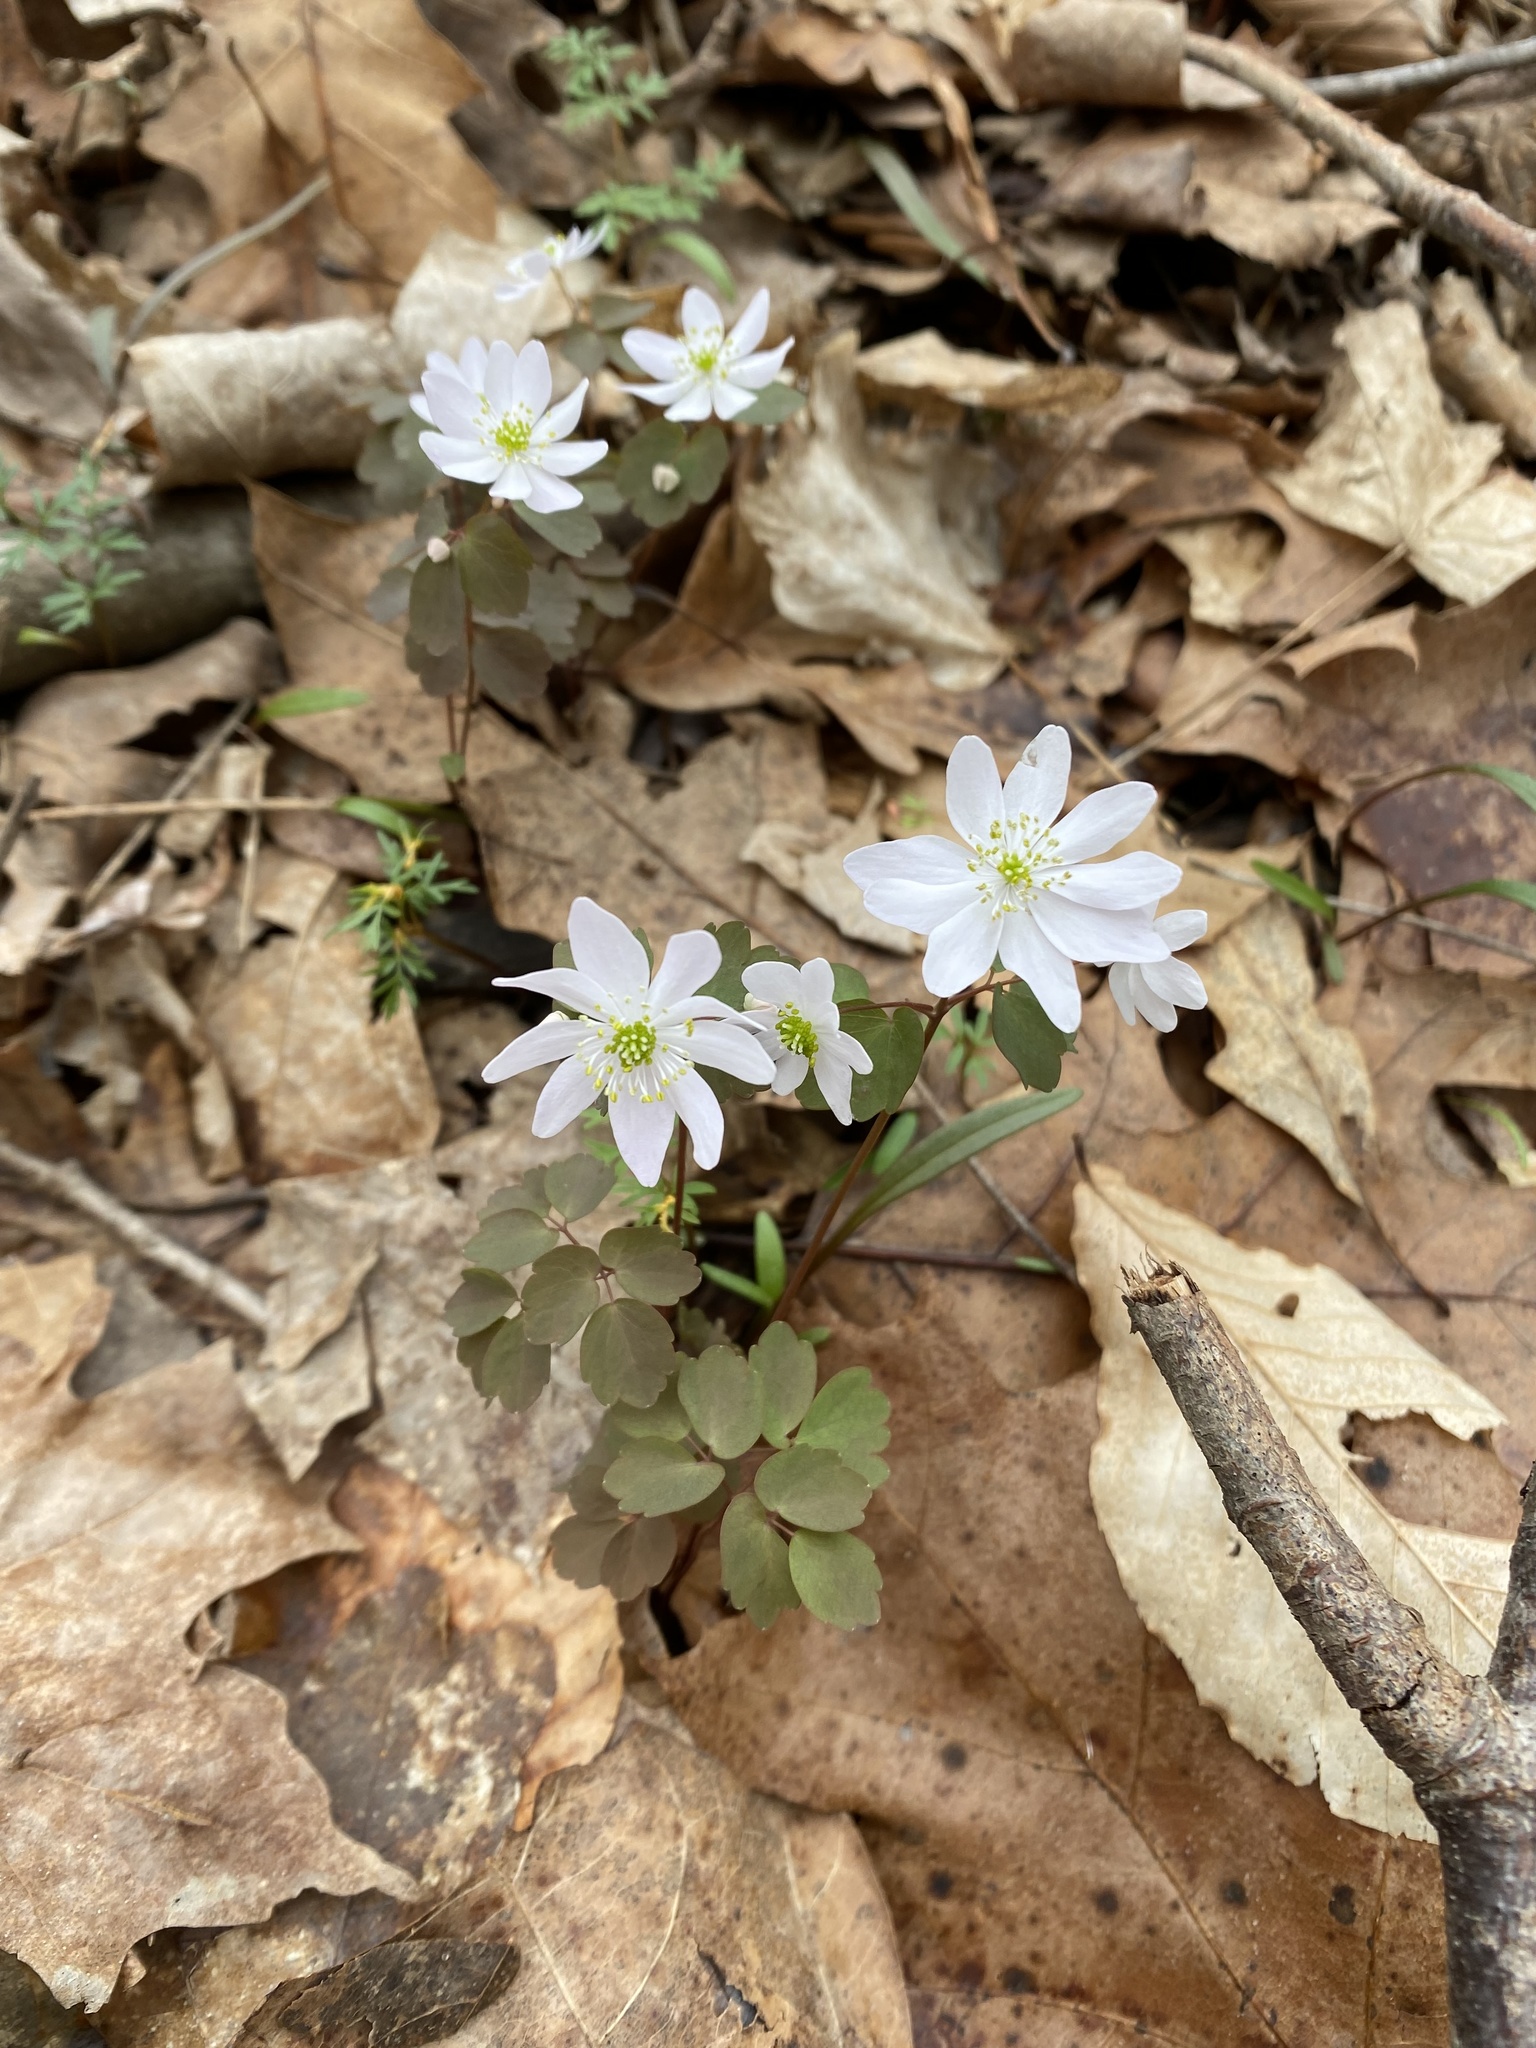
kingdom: Plantae
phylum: Tracheophyta
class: Magnoliopsida
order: Ranunculales
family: Ranunculaceae
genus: Thalictrum
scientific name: Thalictrum thalictroides
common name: Rue-anemone
